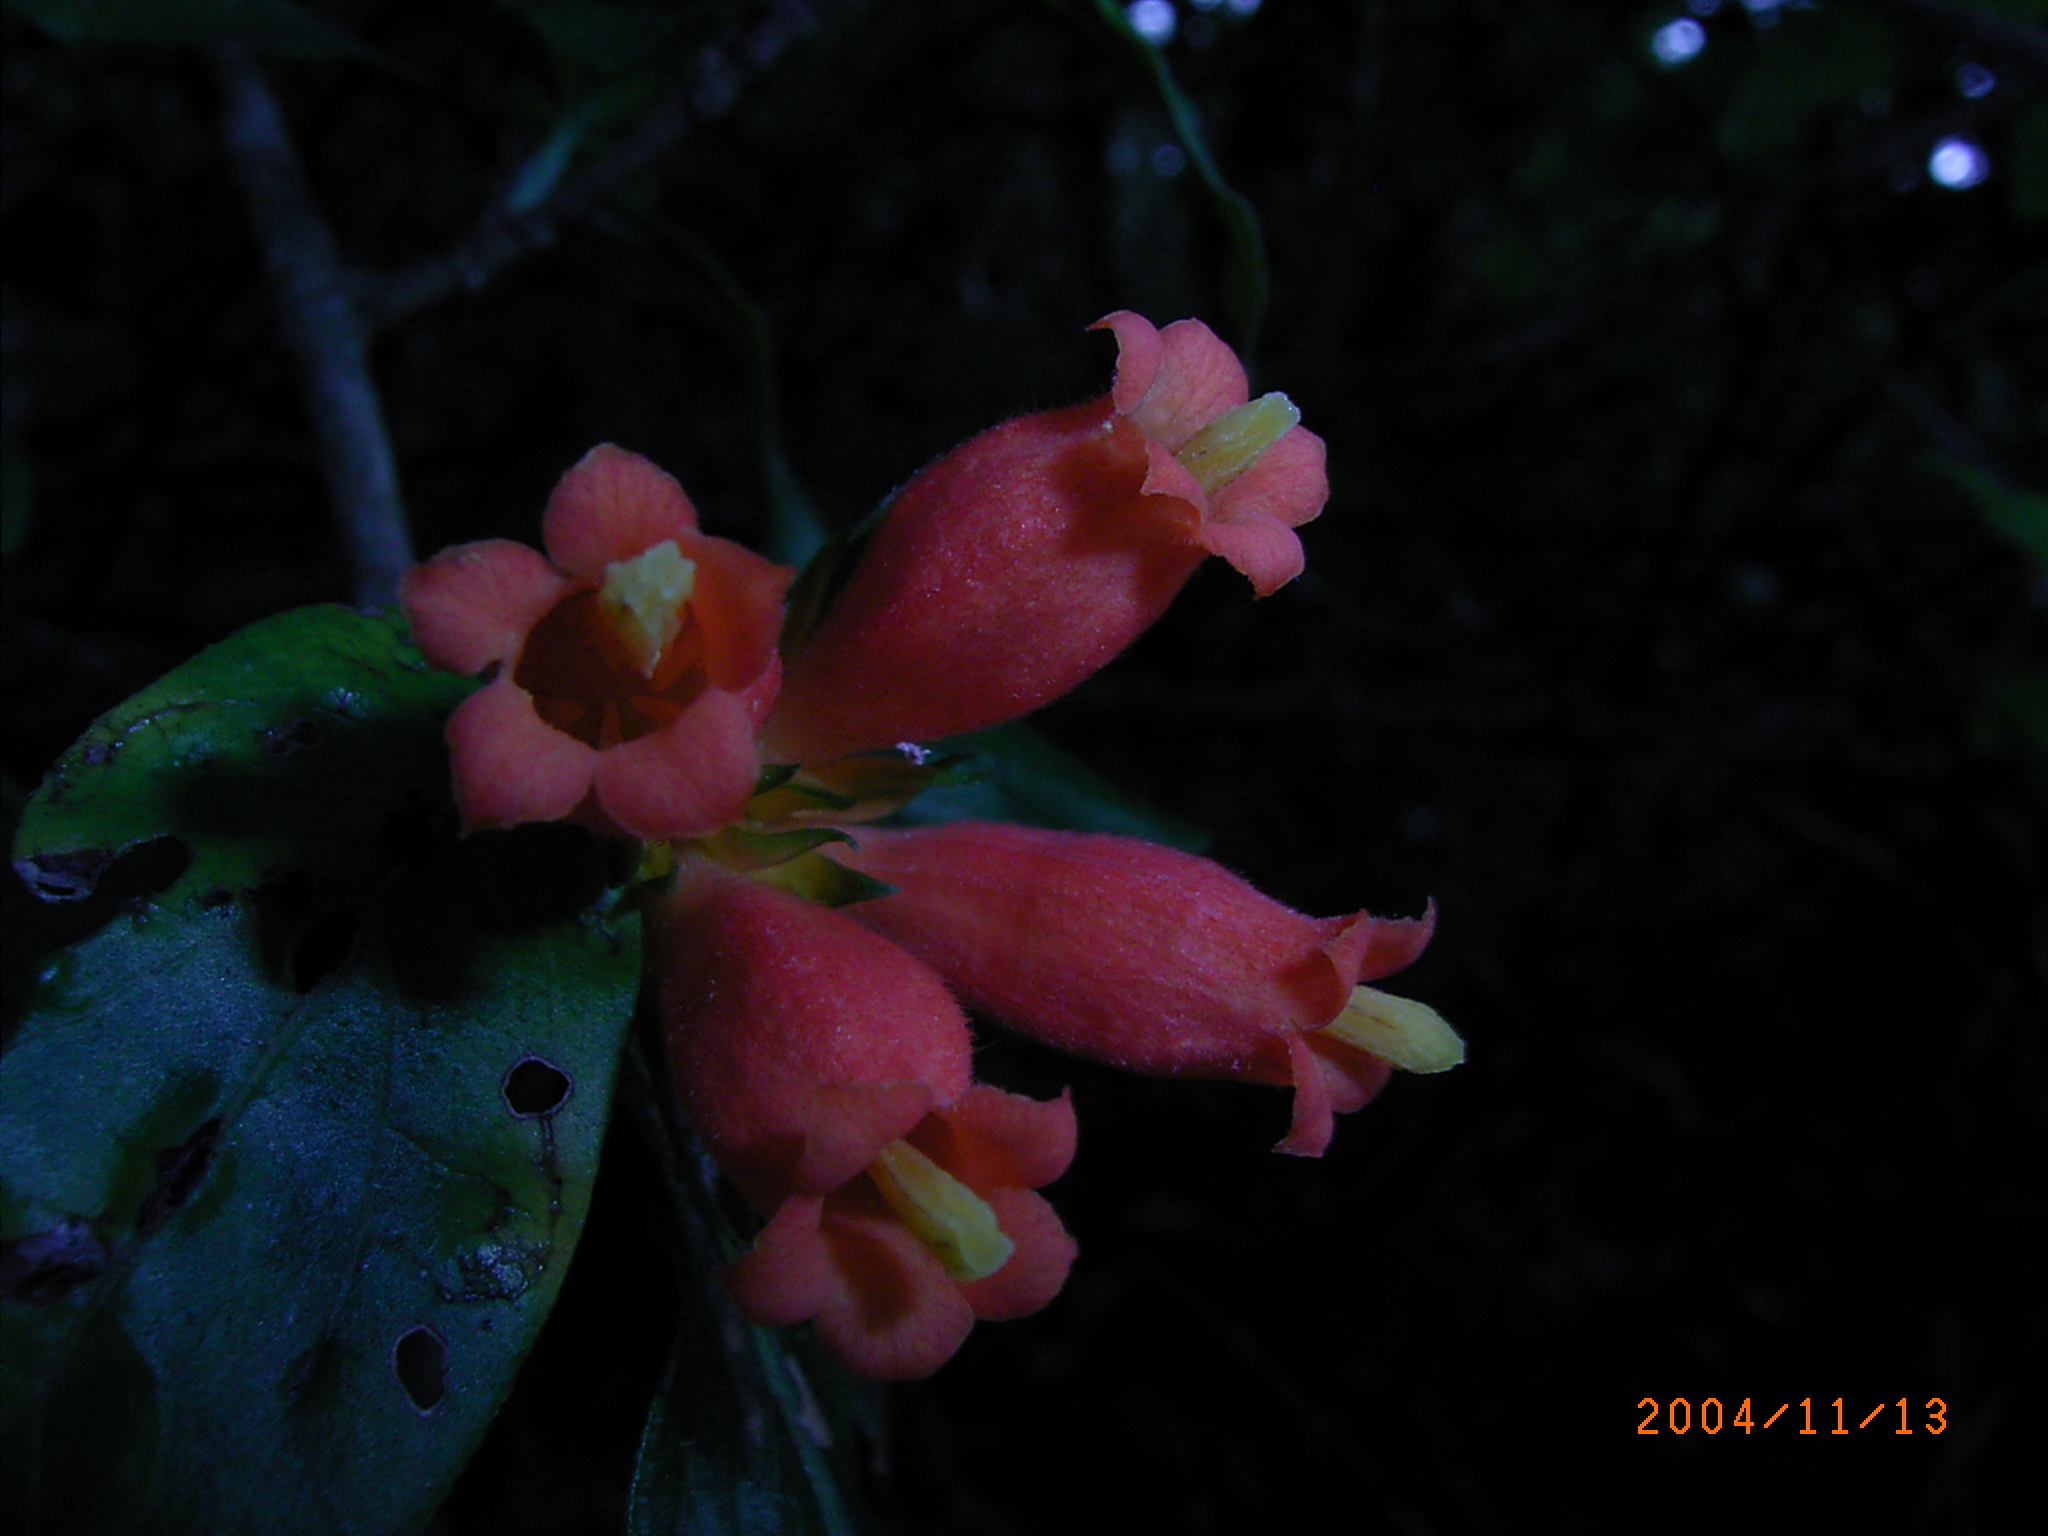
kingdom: Plantae
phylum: Tracheophyta
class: Magnoliopsida
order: Gentianales
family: Rubiaceae
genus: Burchellia
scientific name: Burchellia bubalina
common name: Wild pomegranate
